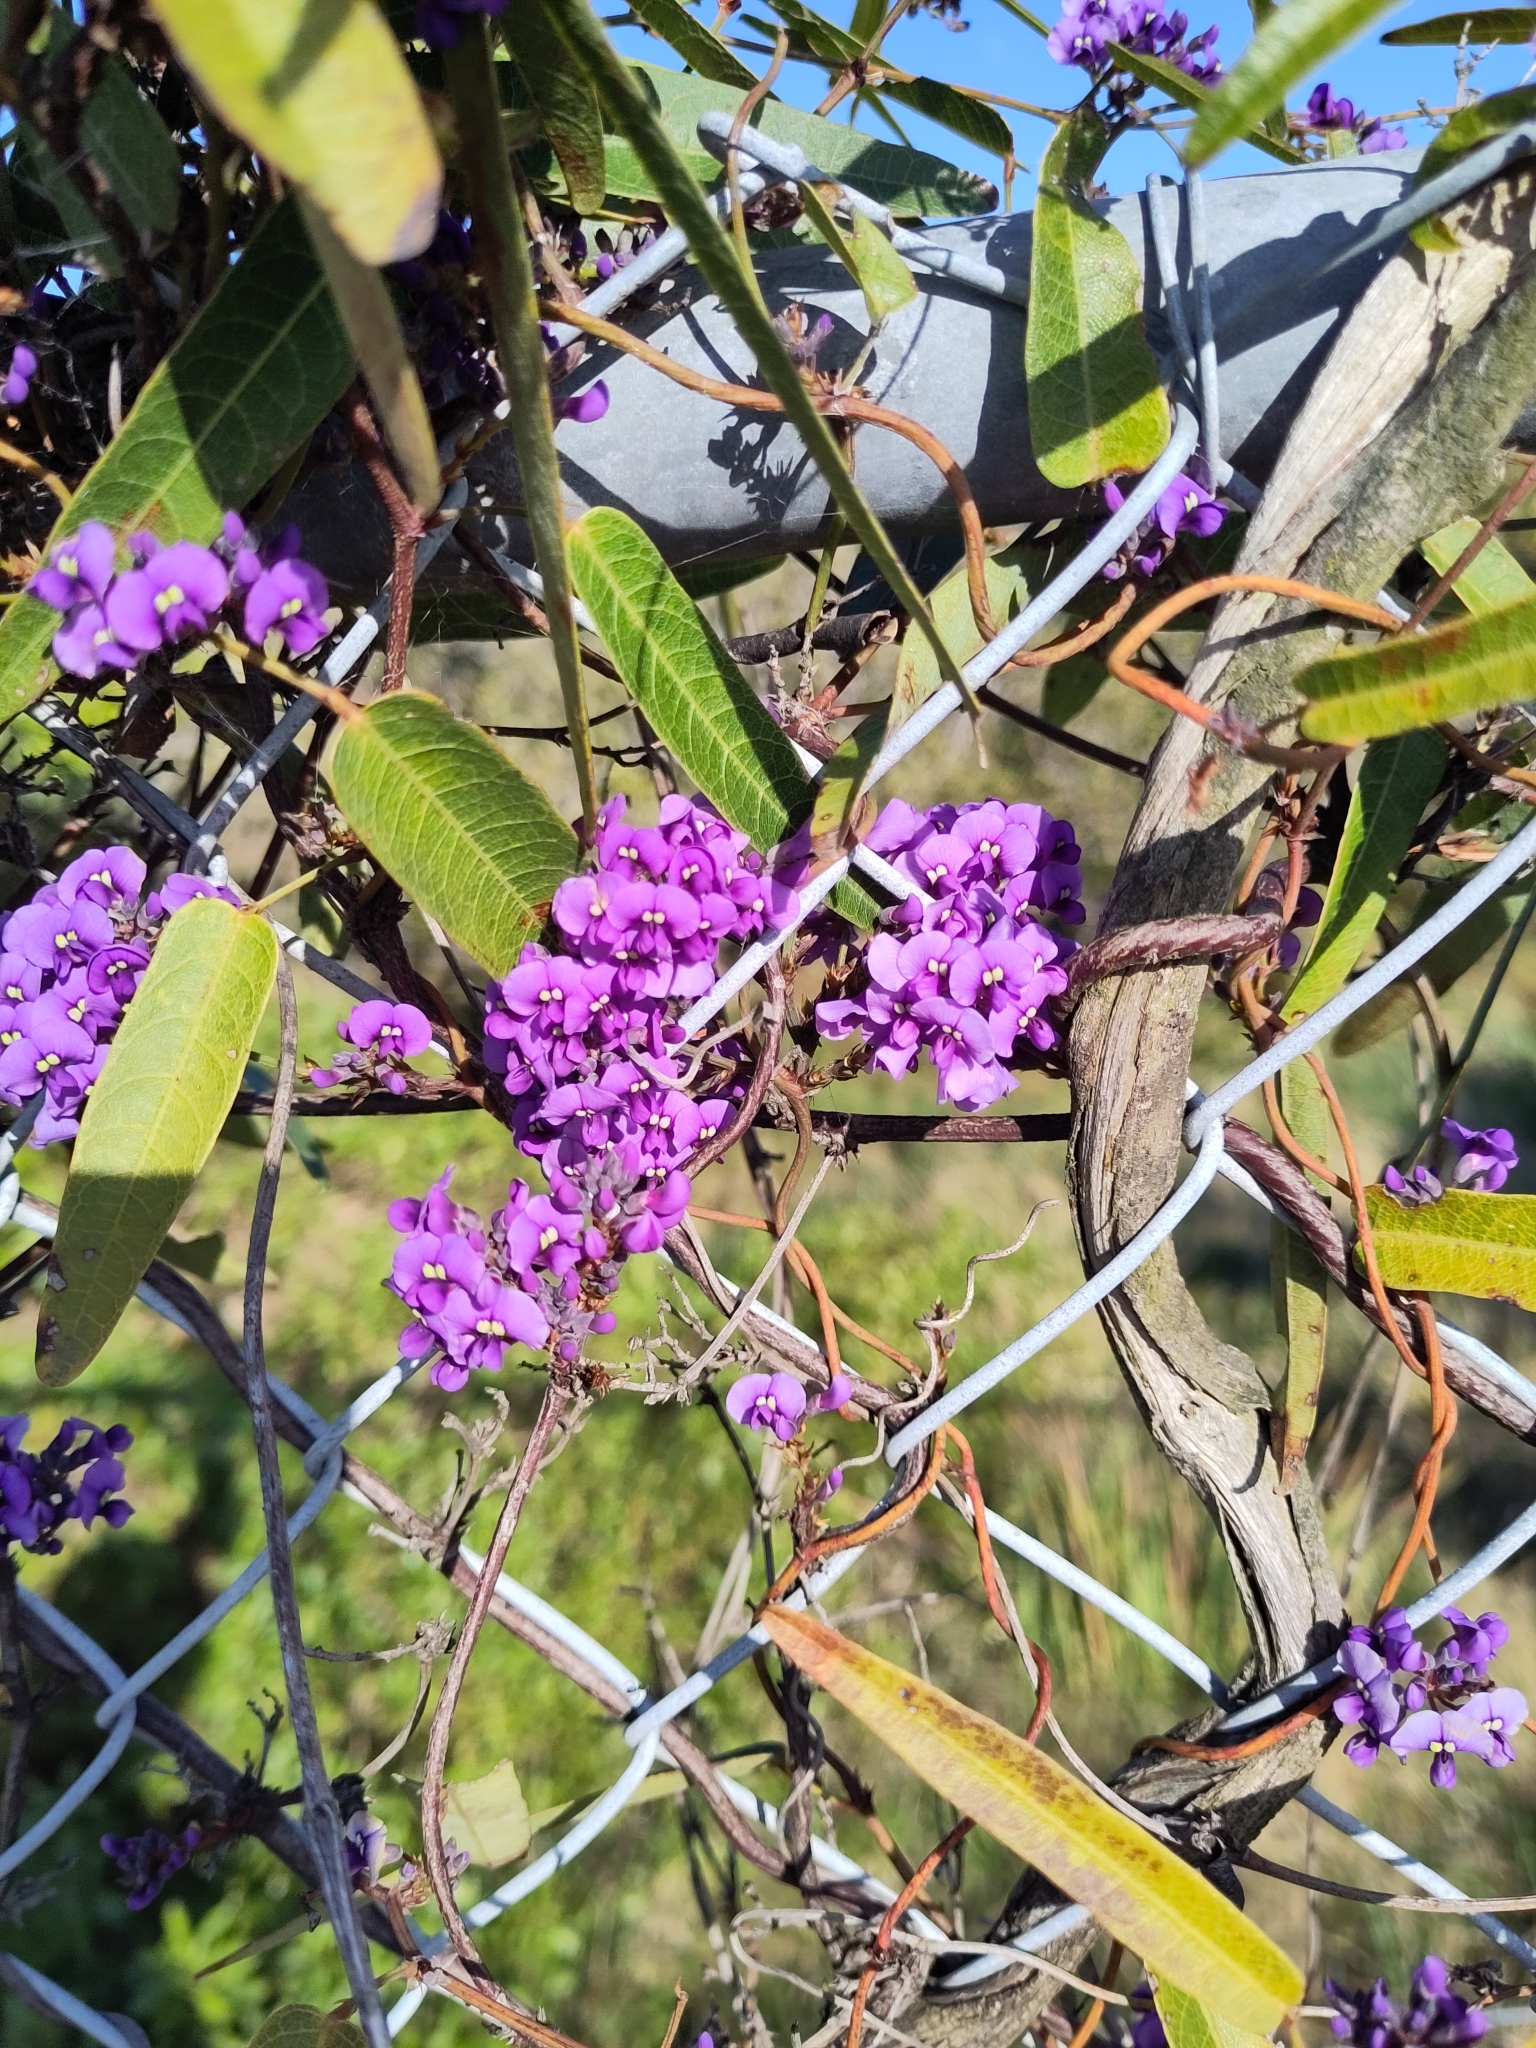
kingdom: Plantae
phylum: Tracheophyta
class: Magnoliopsida
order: Fabales
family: Fabaceae
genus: Hardenbergia
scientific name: Hardenbergia violacea
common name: Coral-pea
